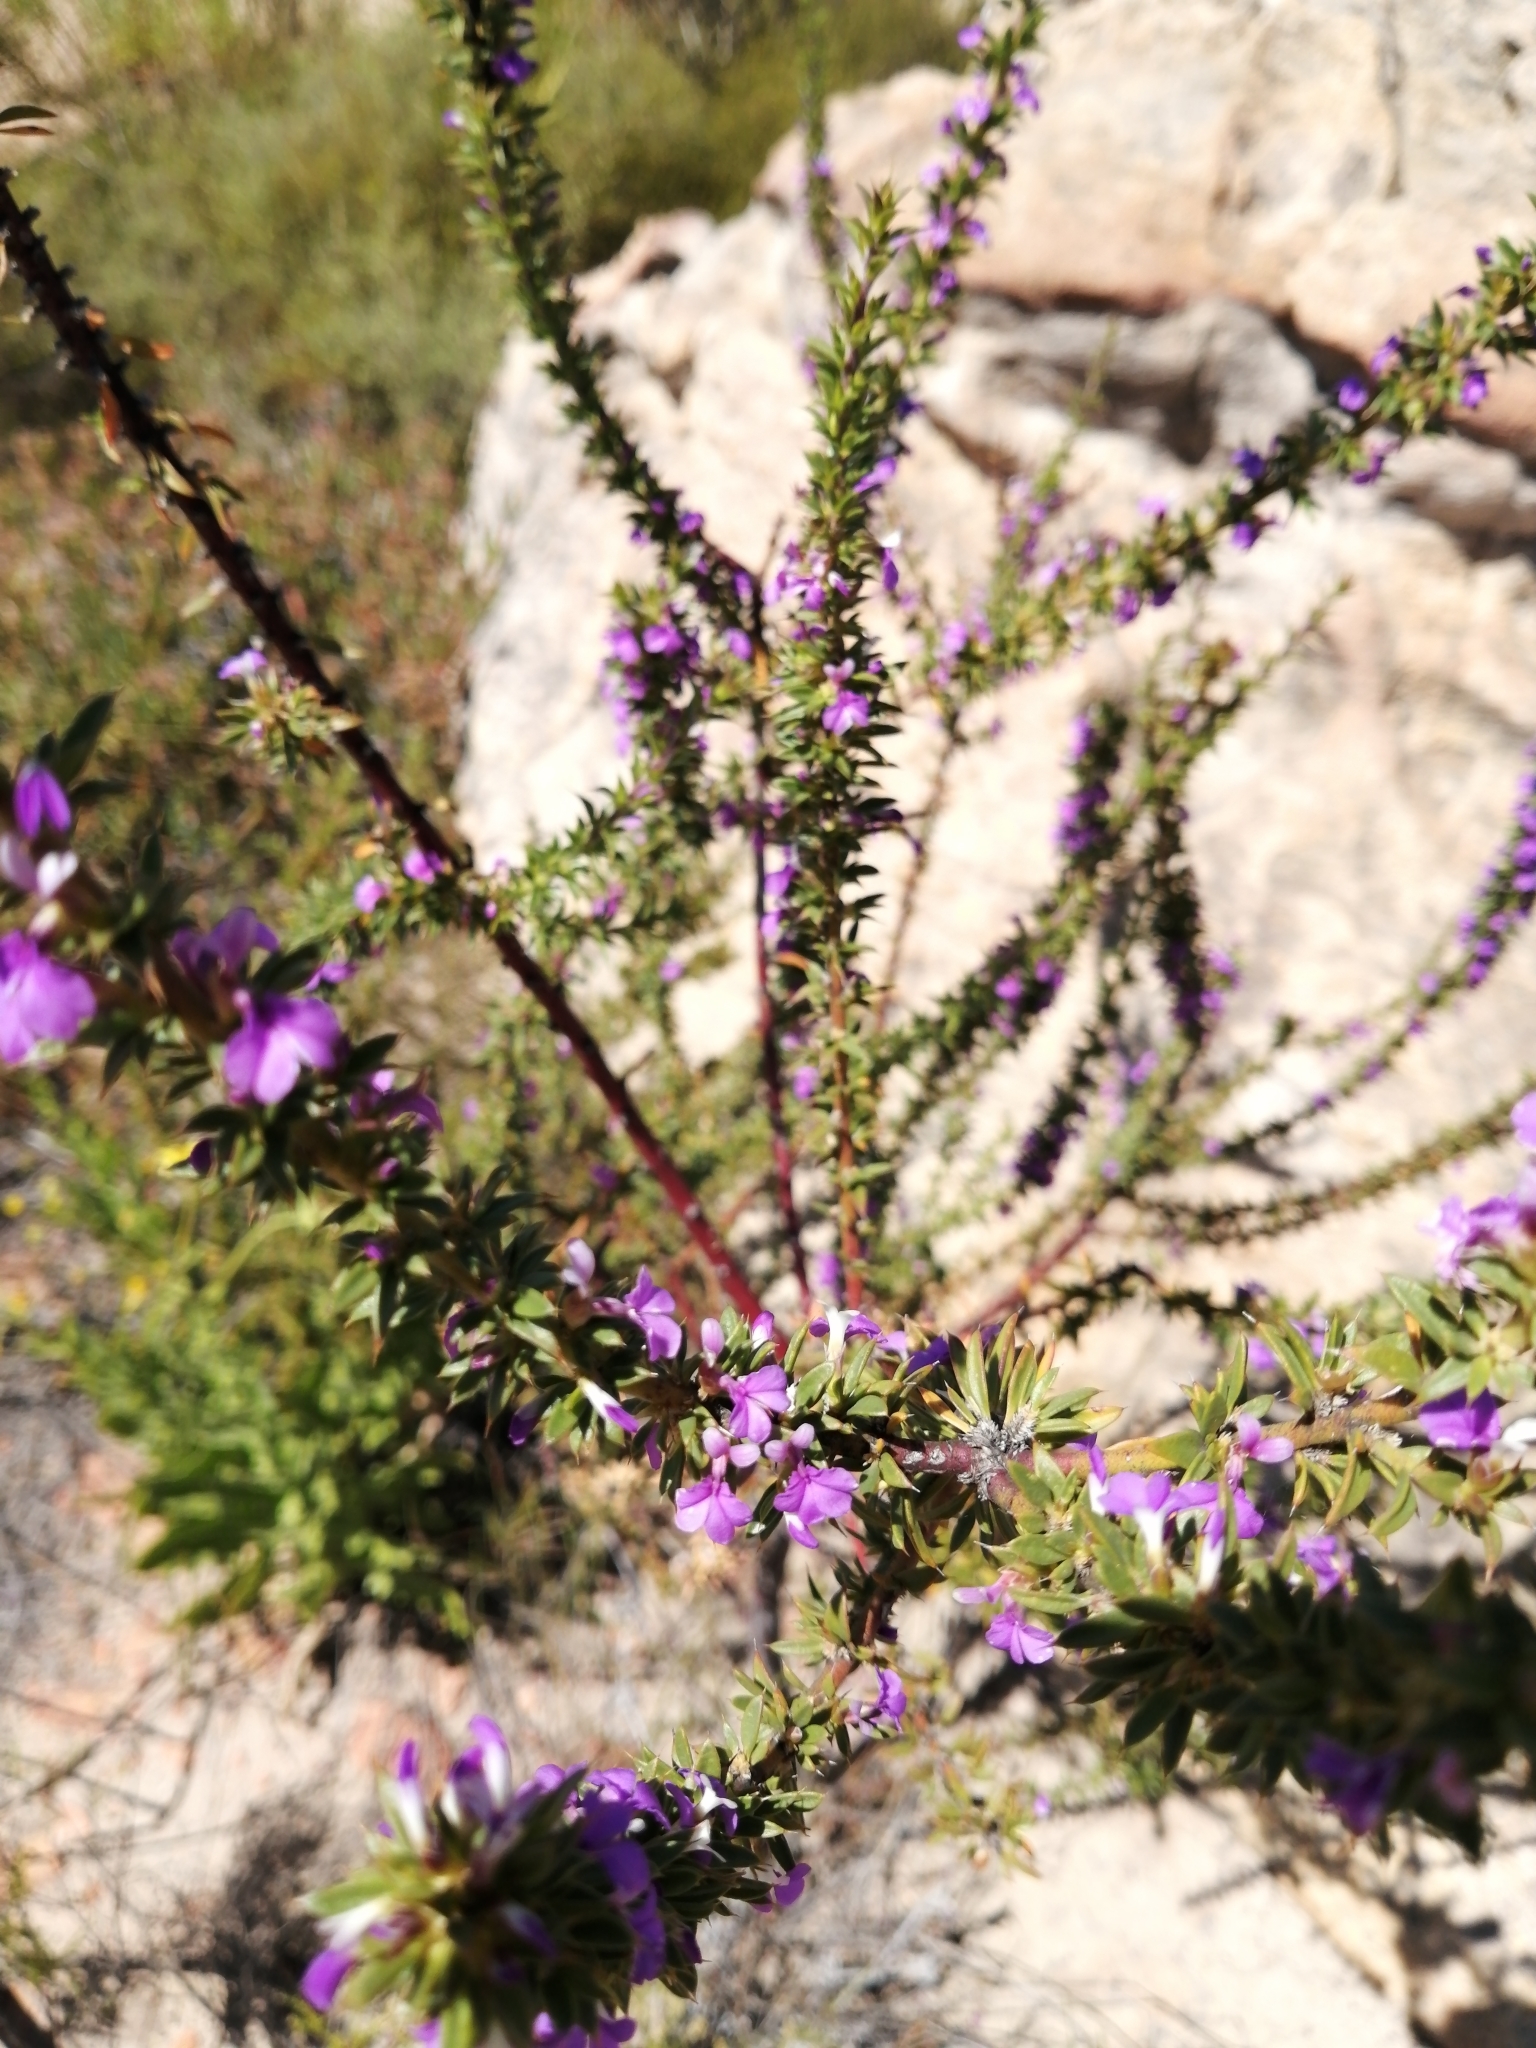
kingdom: Plantae
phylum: Tracheophyta
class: Magnoliopsida
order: Fabales
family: Polygalaceae
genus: Muraltia
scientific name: Muraltia heisteria
